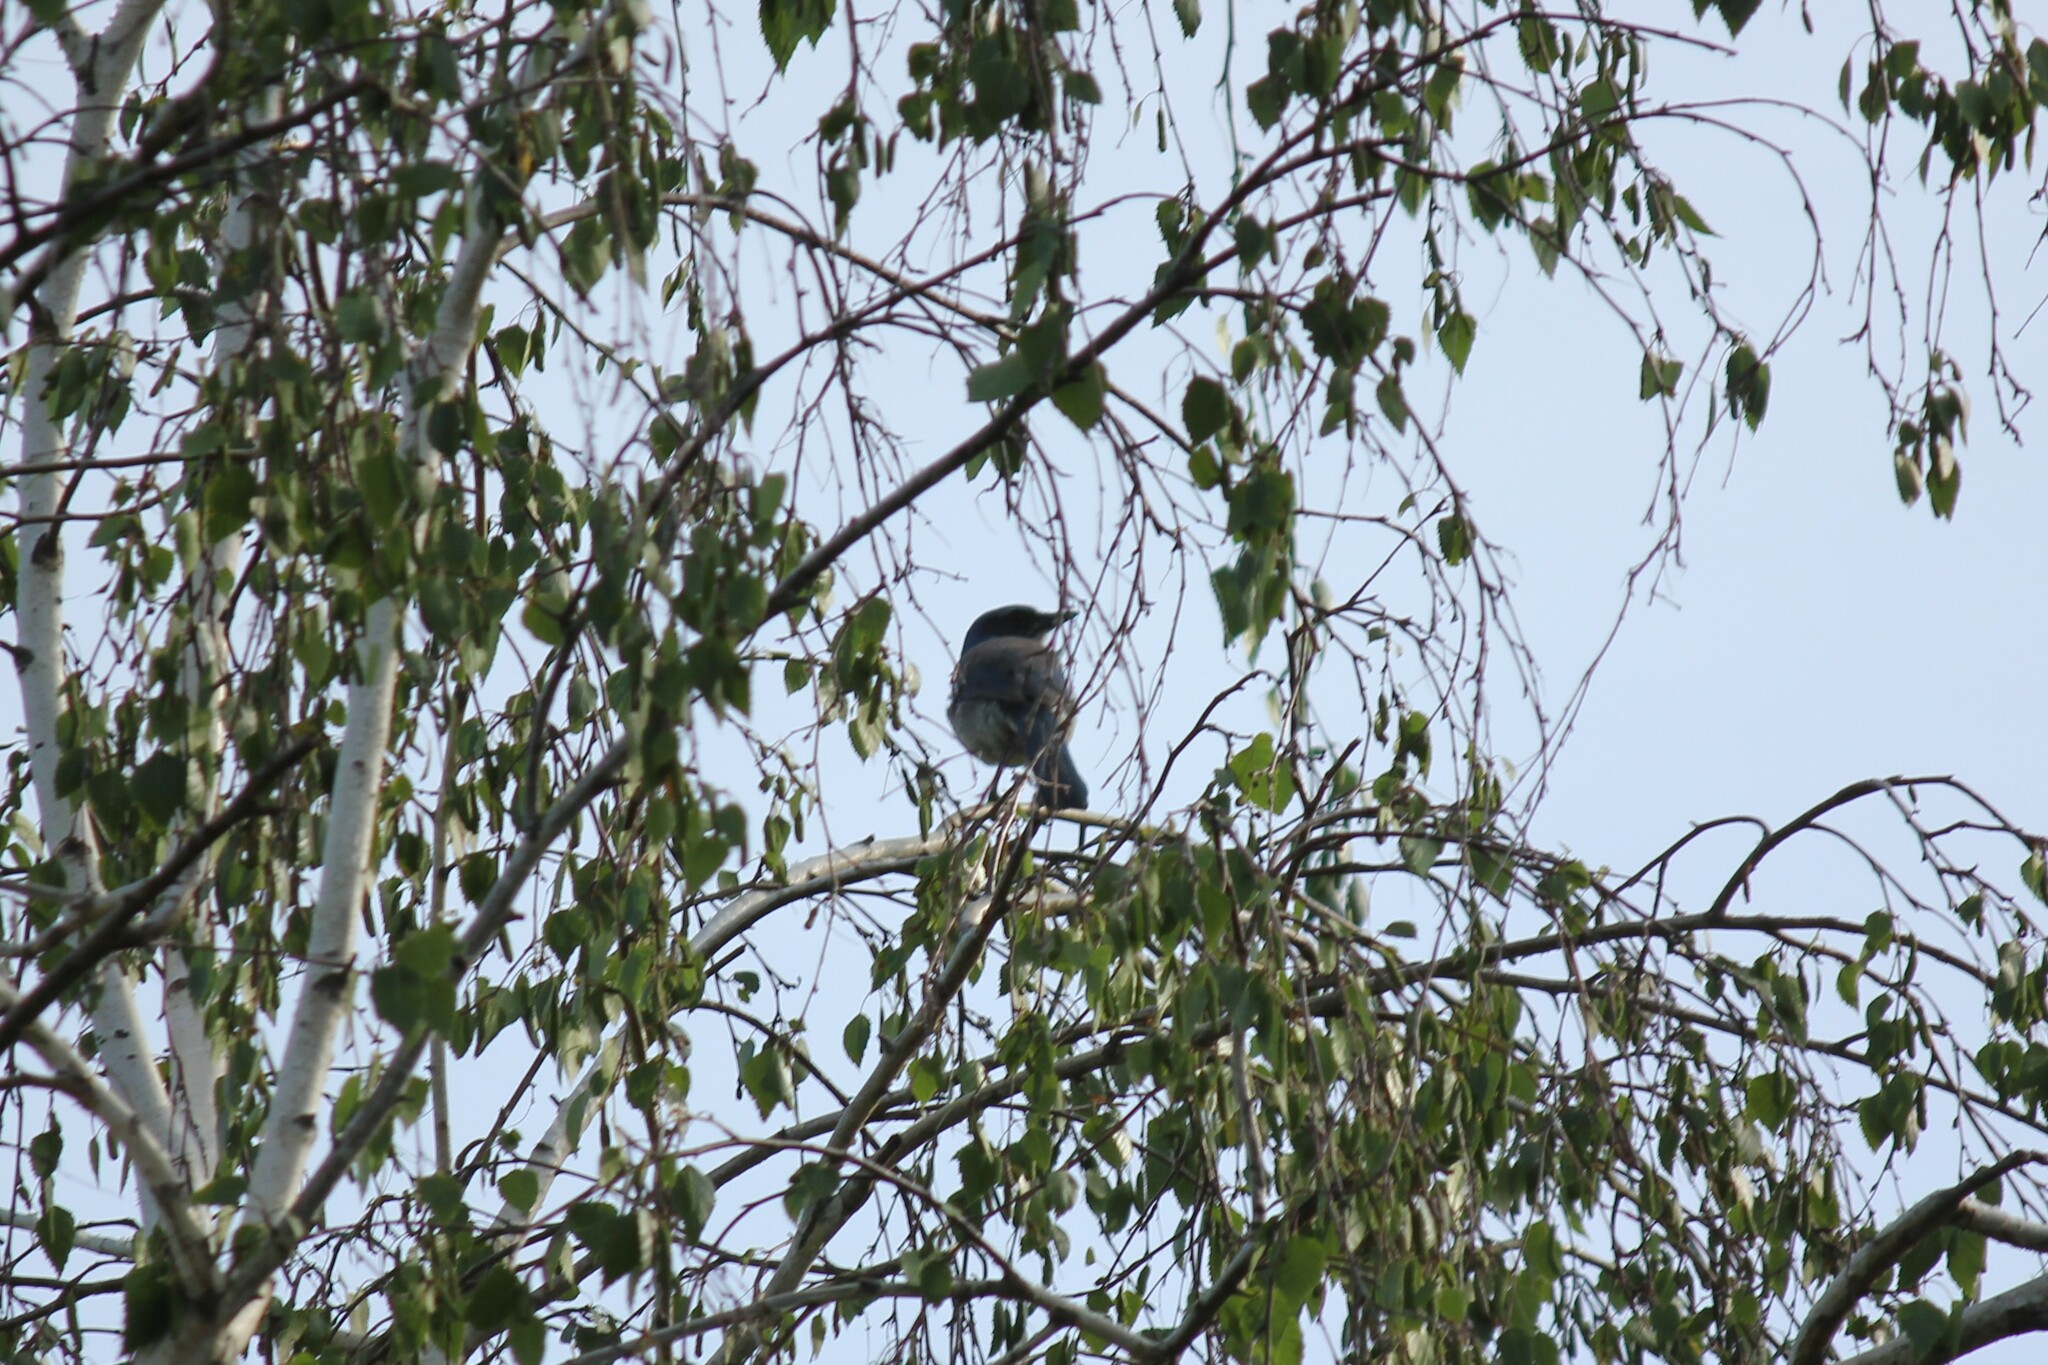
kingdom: Animalia
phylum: Chordata
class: Aves
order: Passeriformes
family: Corvidae
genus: Aphelocoma
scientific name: Aphelocoma californica
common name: California scrub-jay
